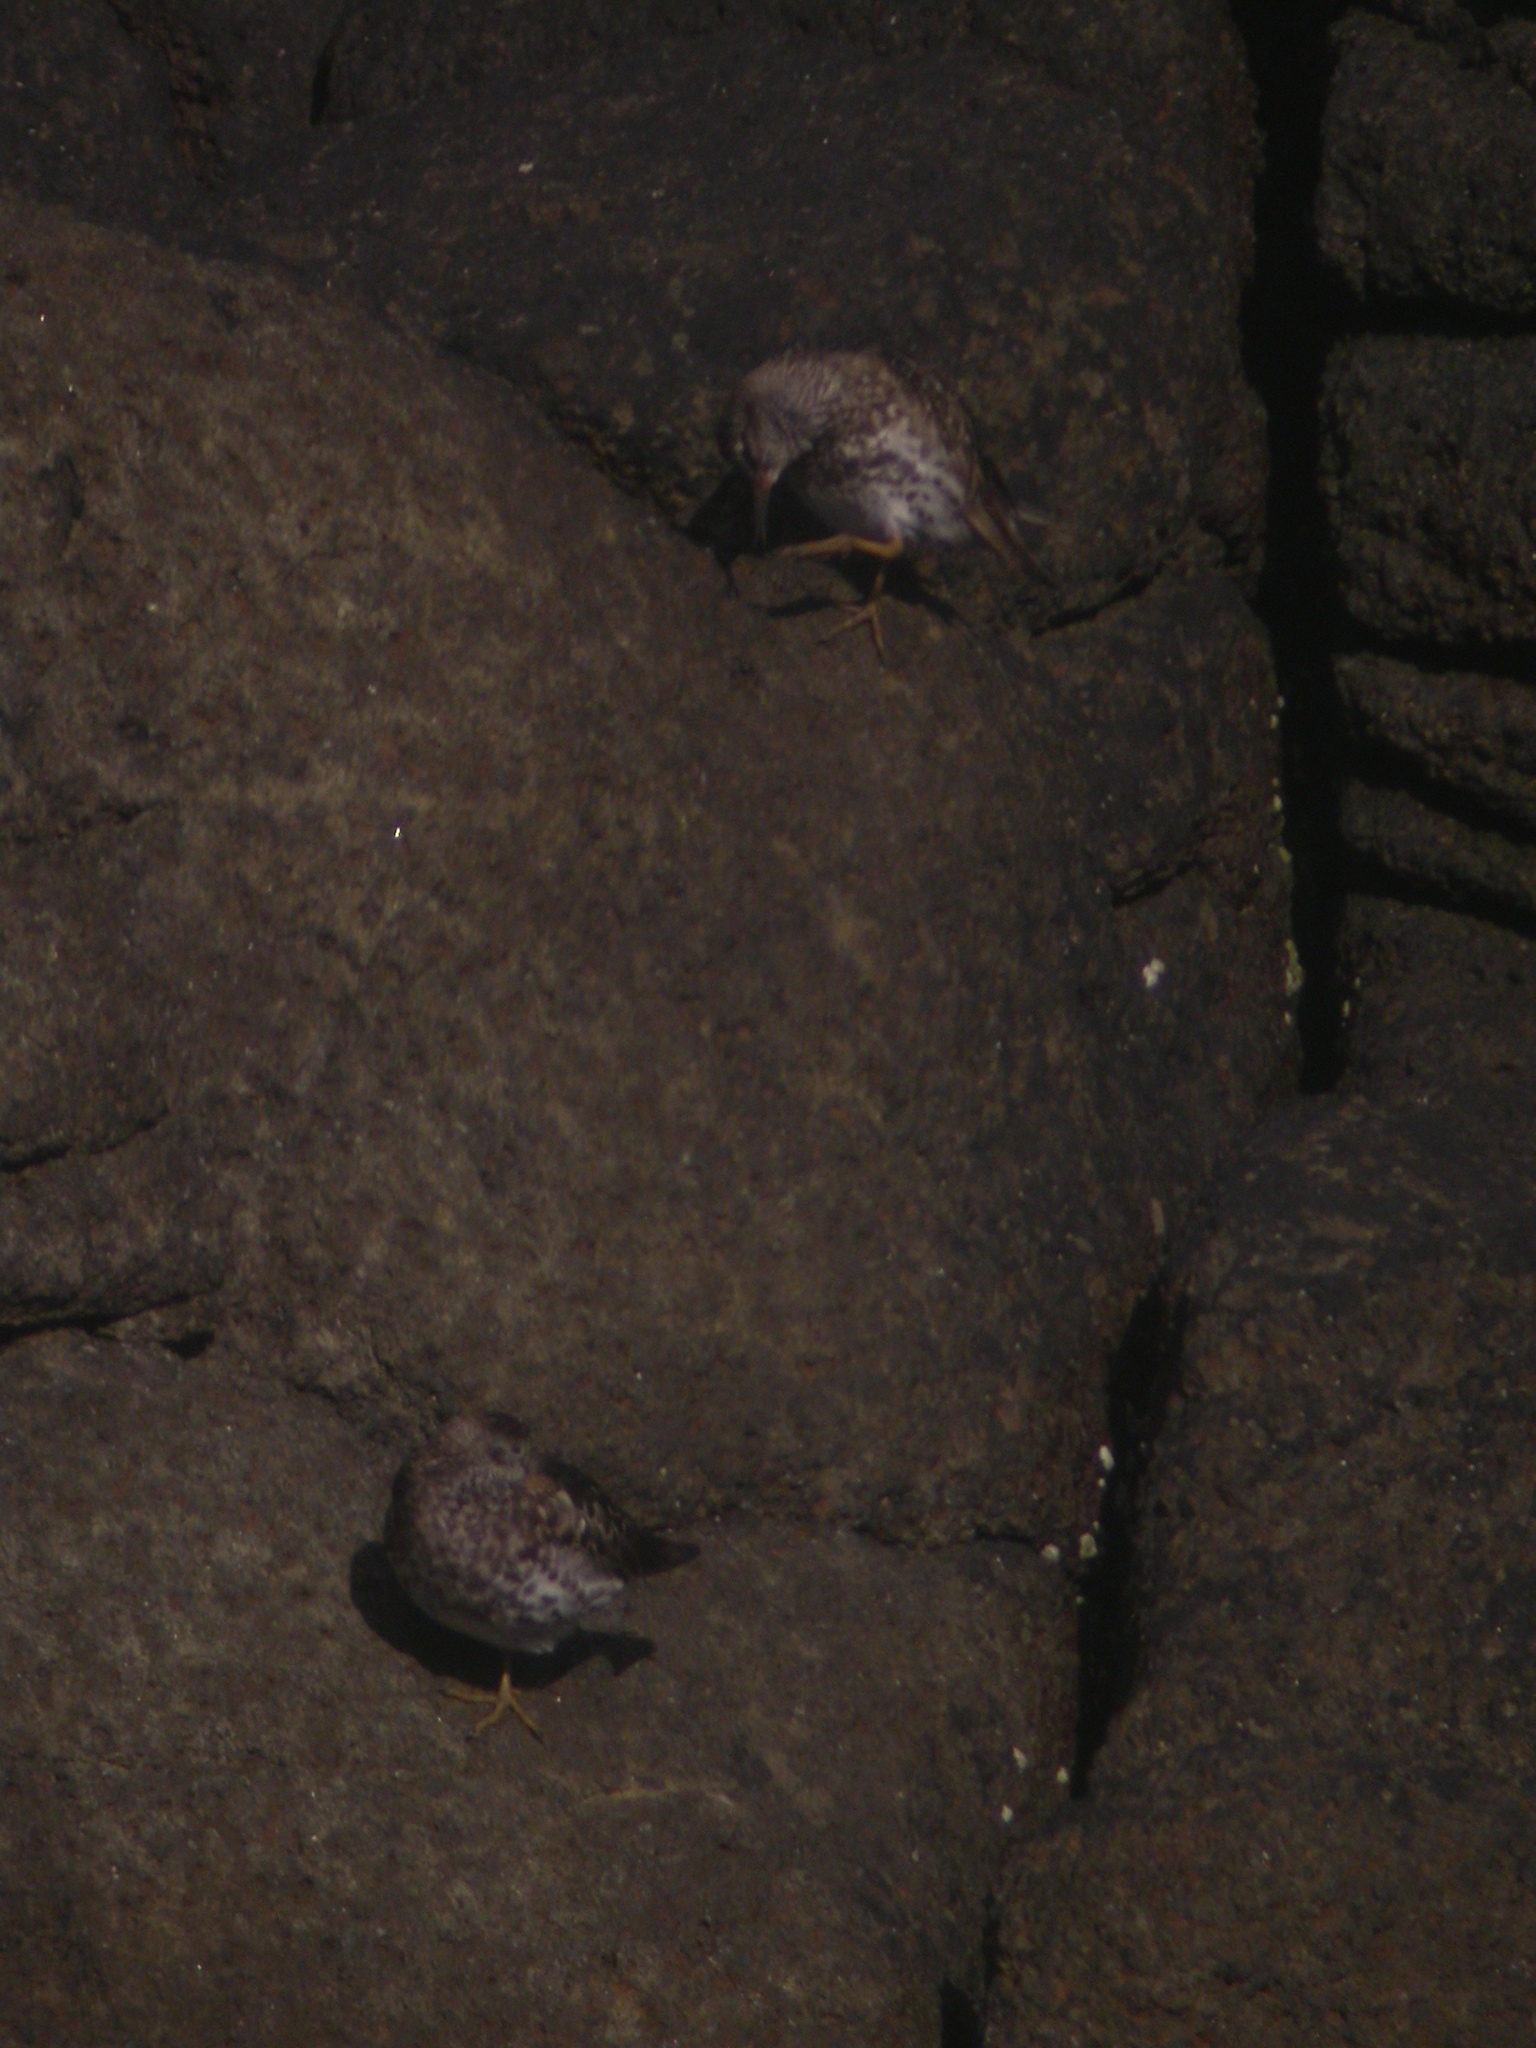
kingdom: Animalia
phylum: Chordata
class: Aves
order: Charadriiformes
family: Scolopacidae
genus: Calidris
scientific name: Calidris maritima
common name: Purple sandpiper
